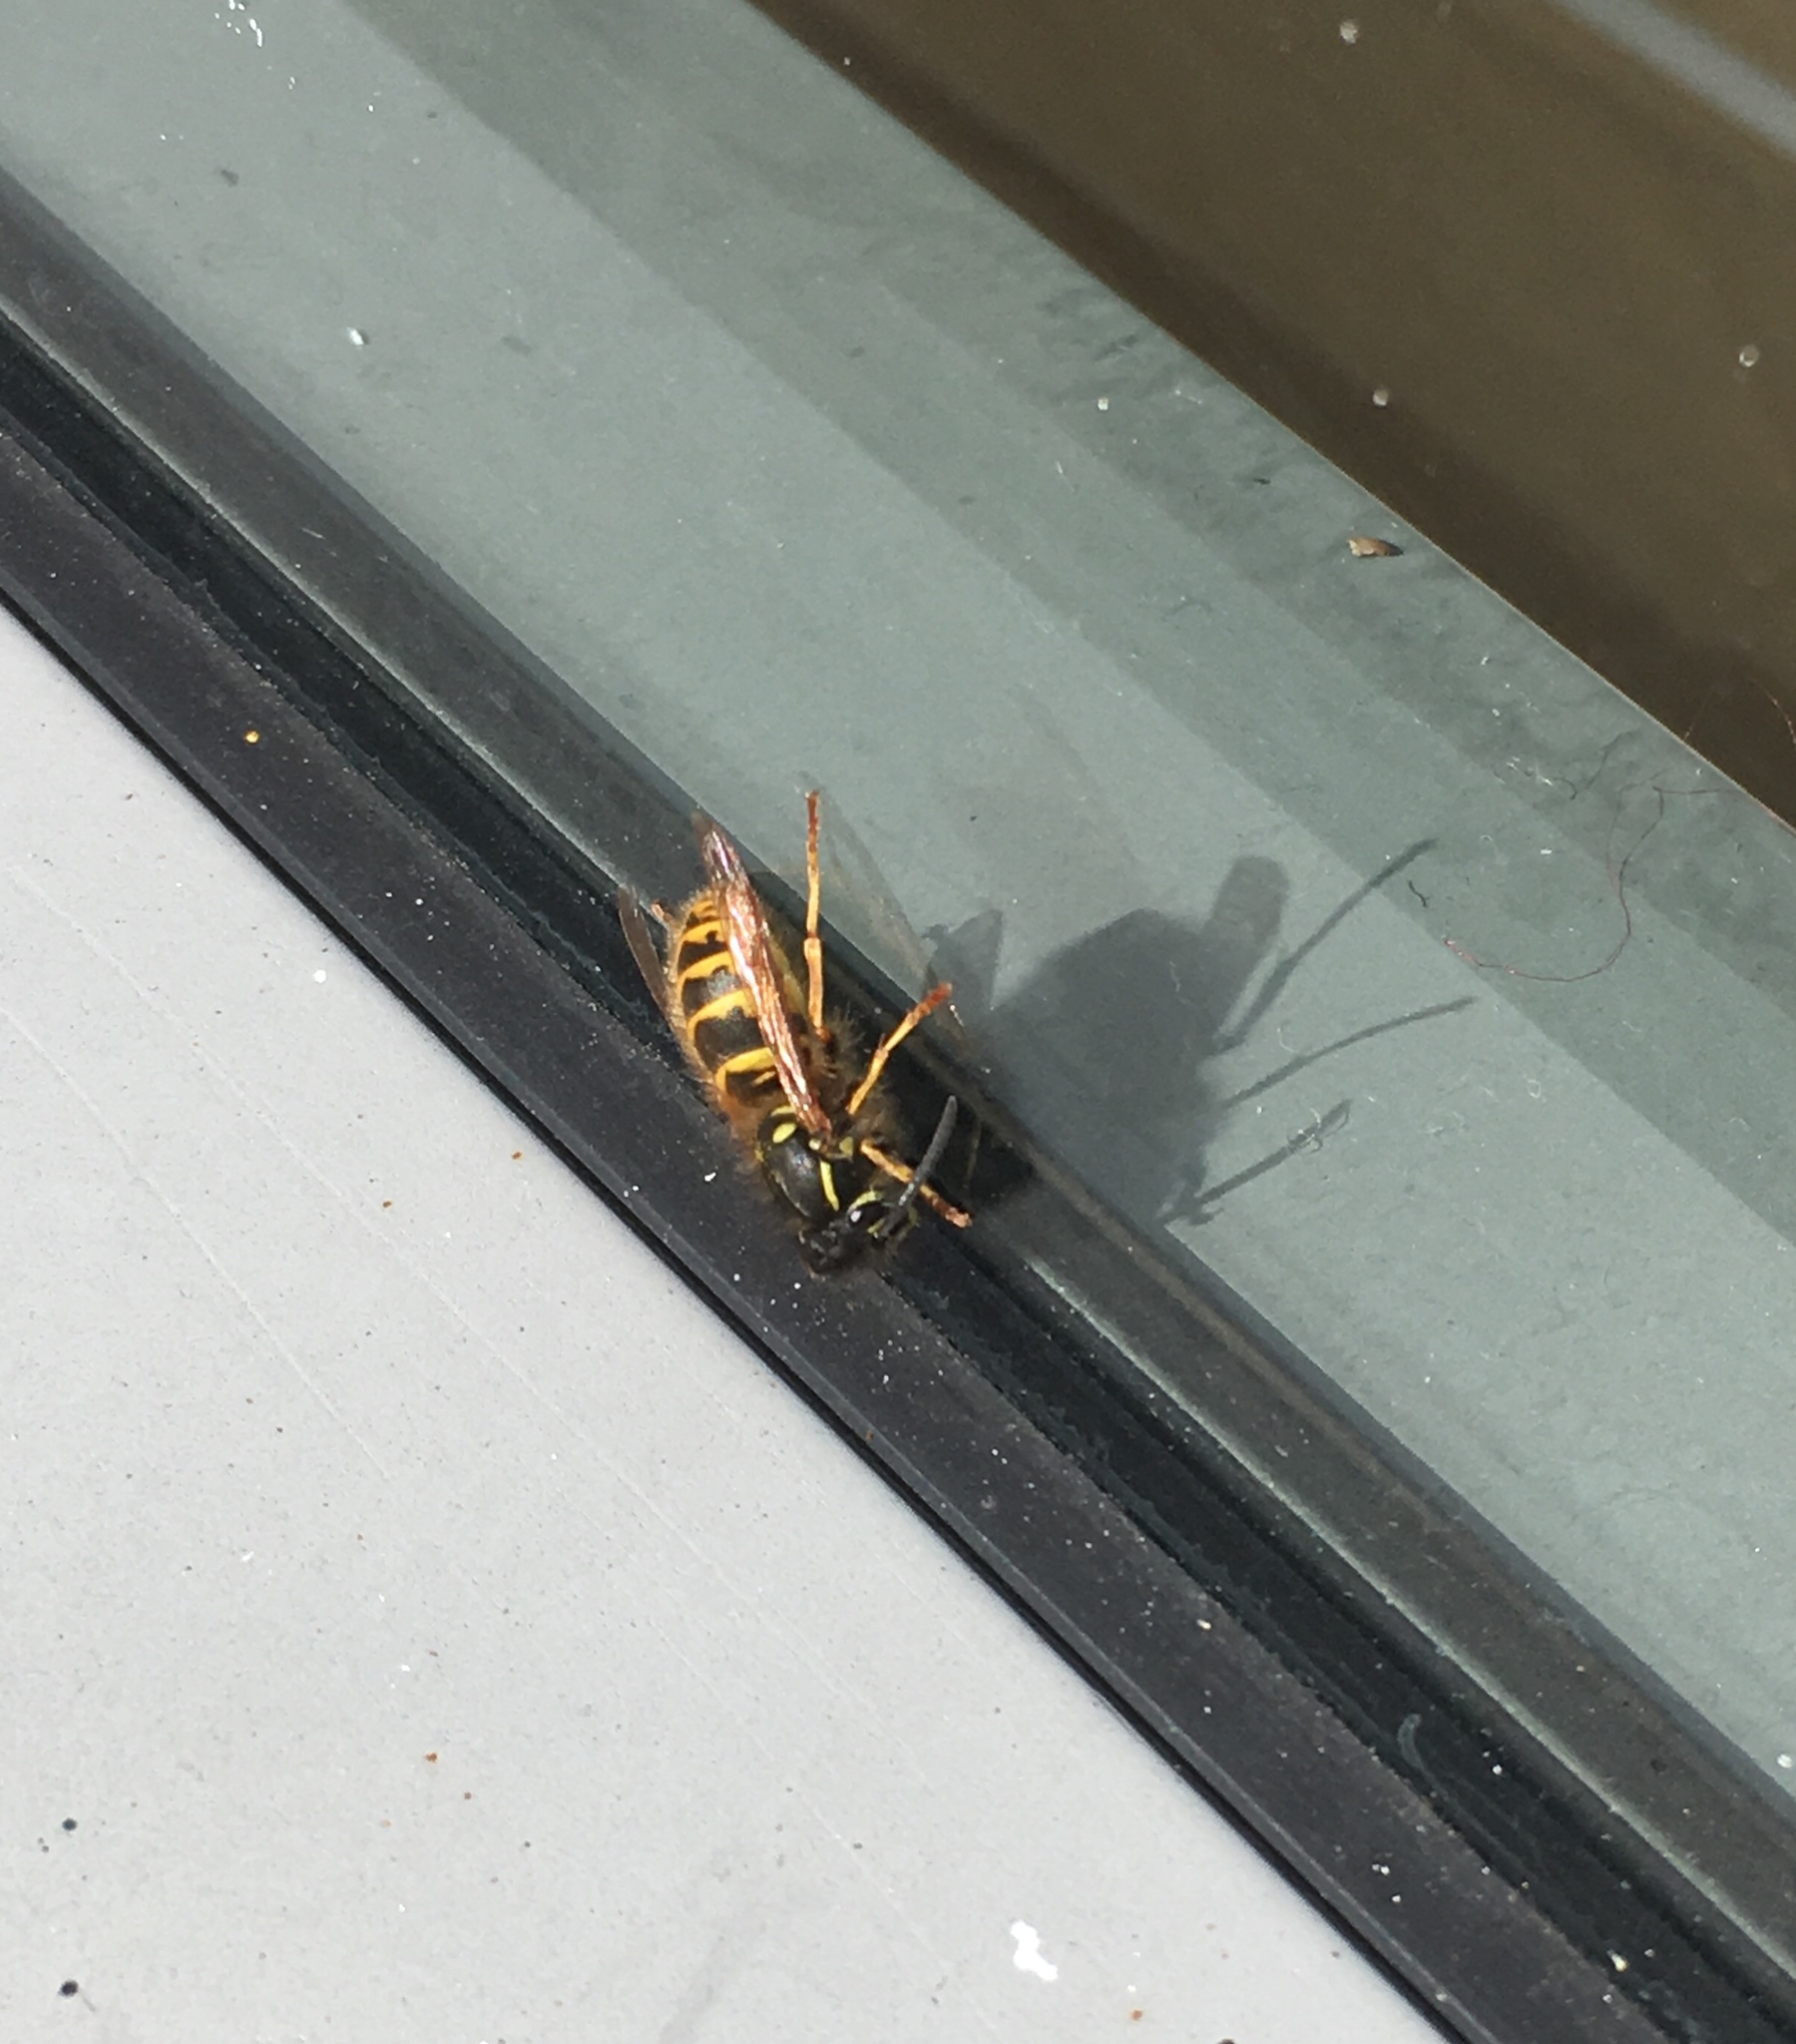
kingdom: Animalia
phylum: Arthropoda
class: Insecta
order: Hymenoptera
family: Vespidae
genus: Vespula
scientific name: Vespula vulgaris
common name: Common wasp
